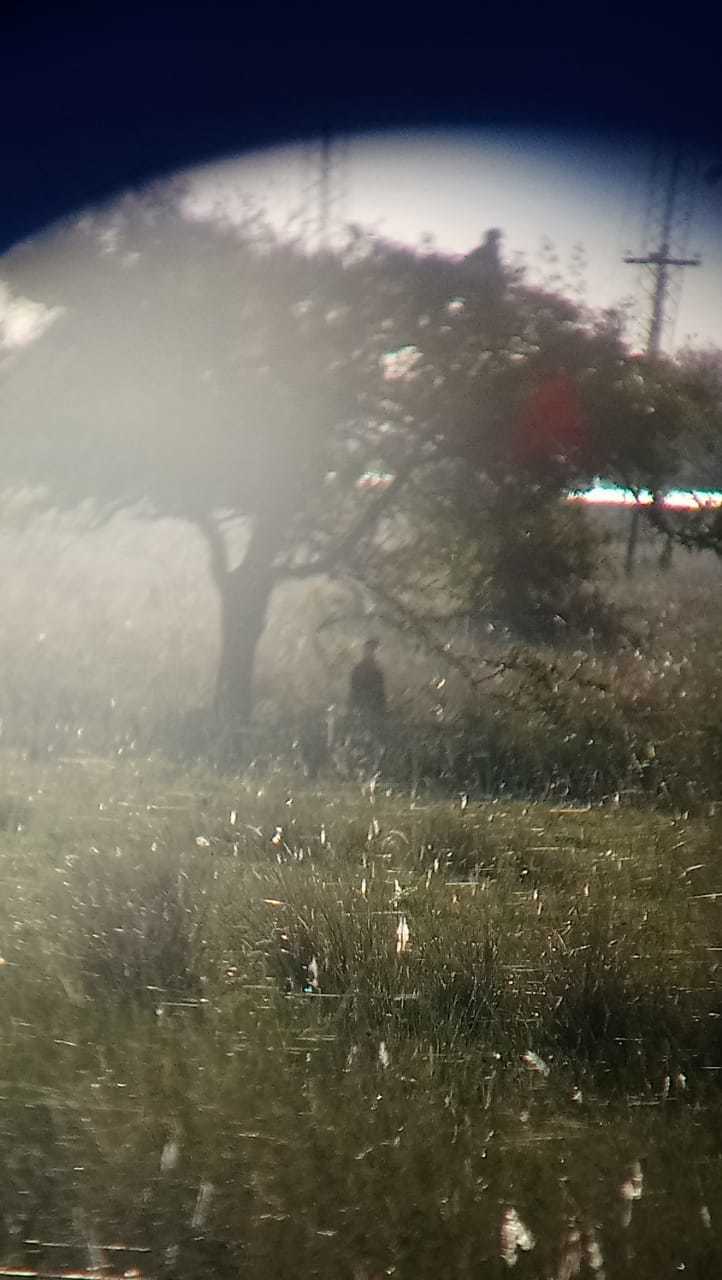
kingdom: Animalia
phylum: Chordata
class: Aves
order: Falconiformes
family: Falconidae
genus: Caracara
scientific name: Caracara plancus
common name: Southern caracara
